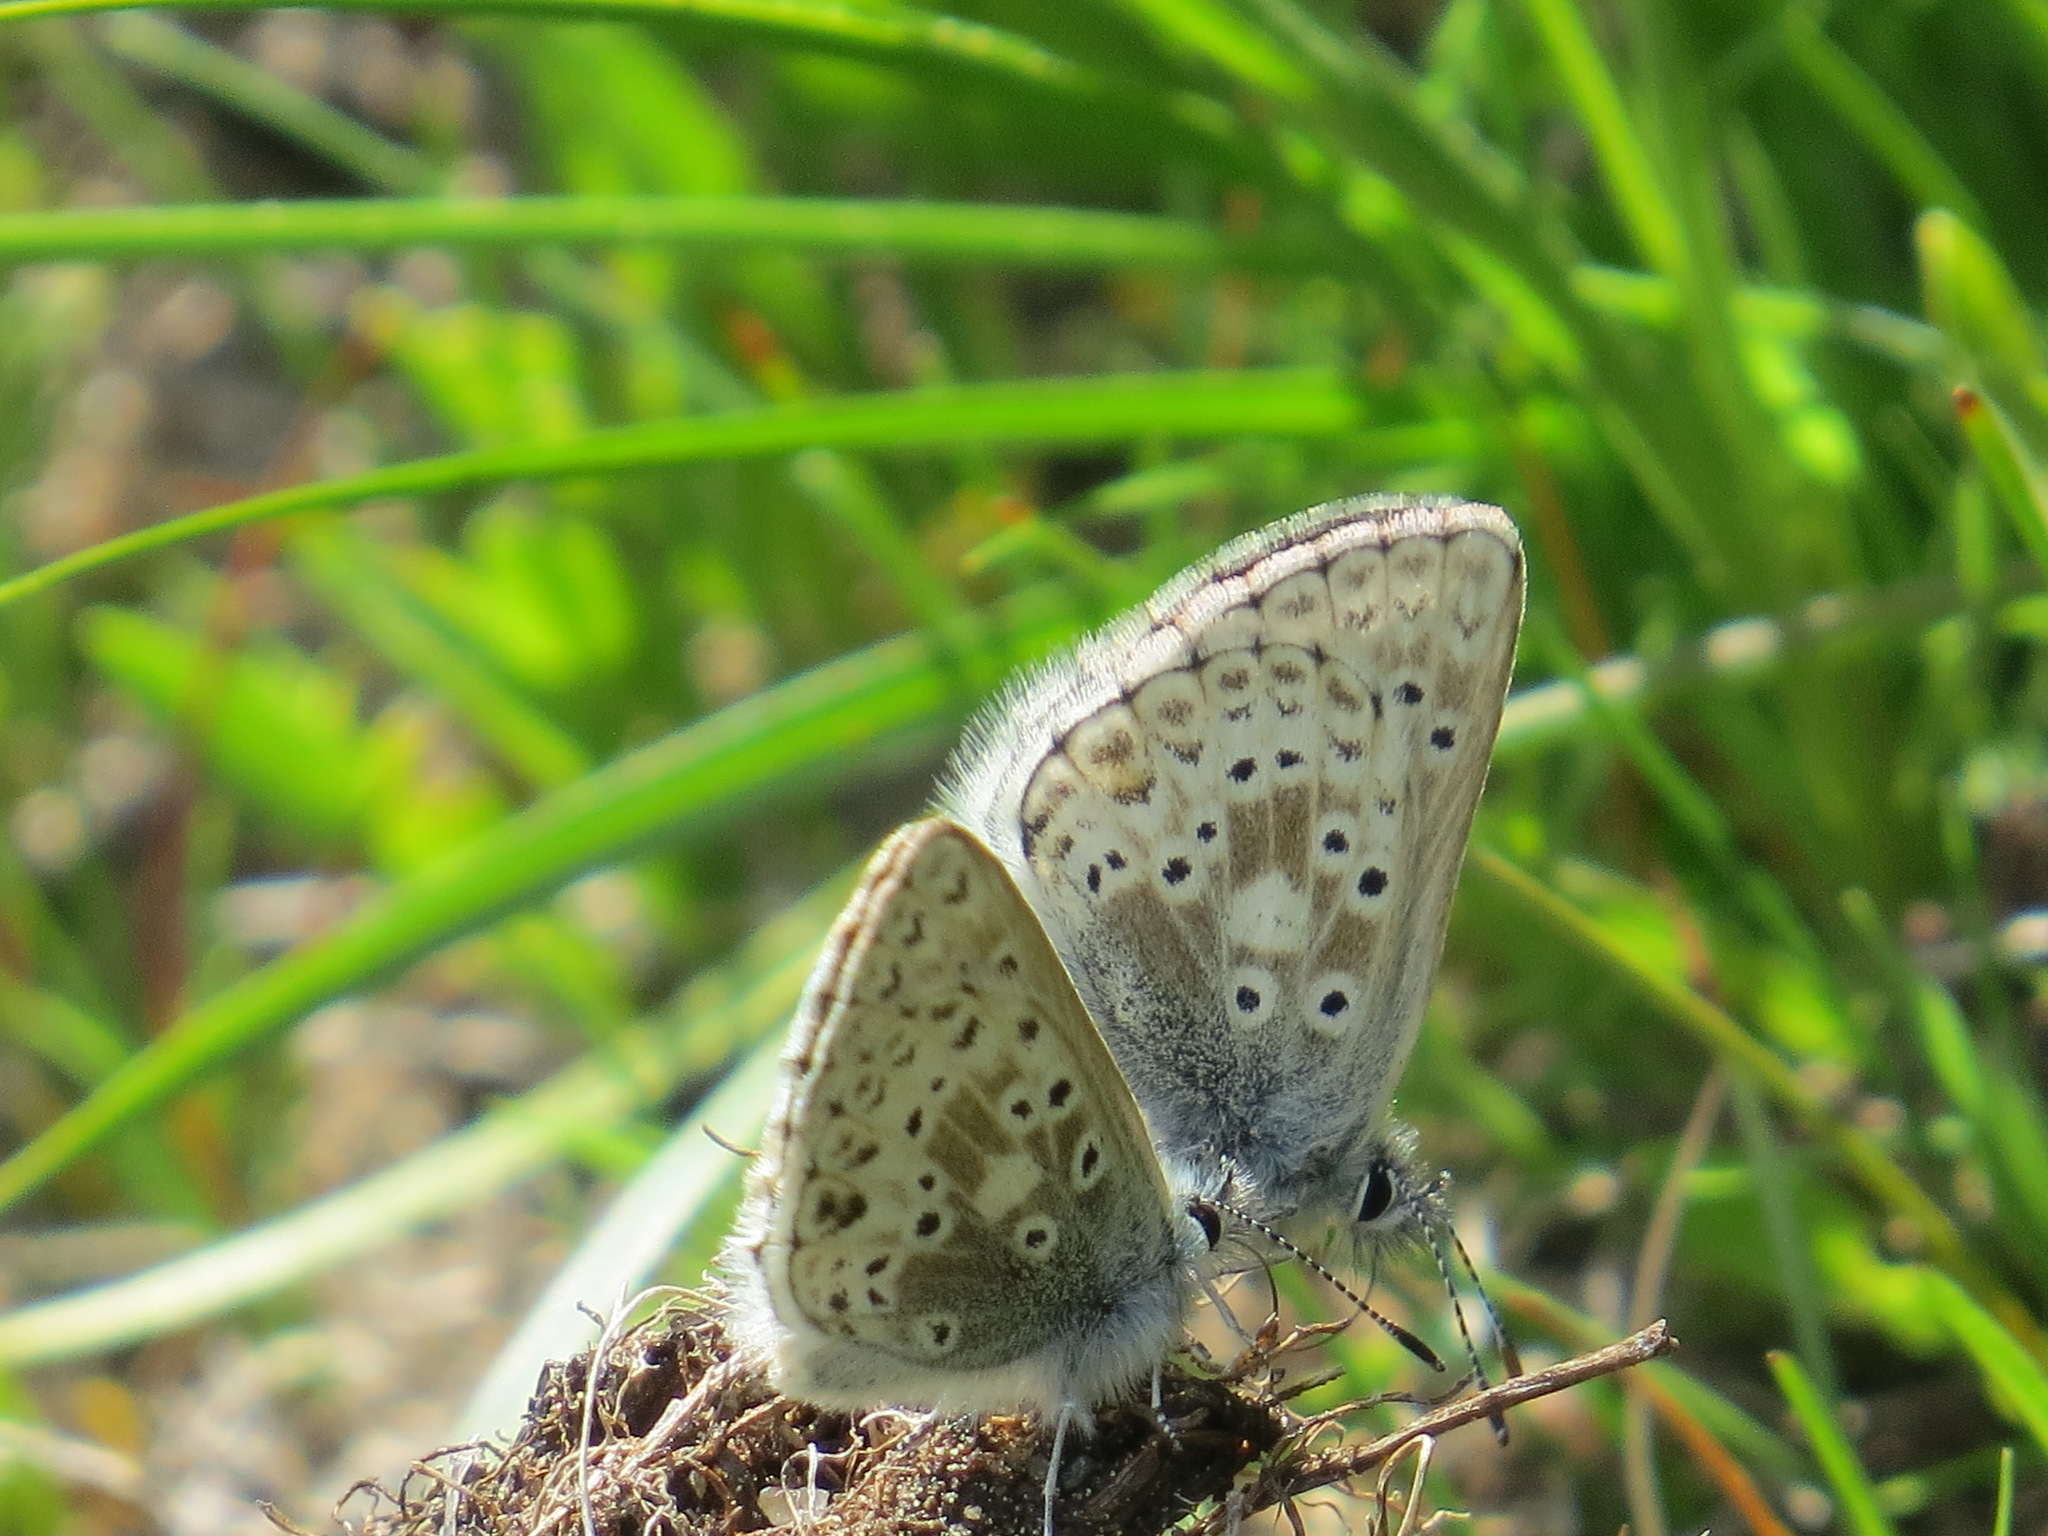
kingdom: Animalia
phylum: Arthropoda
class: Insecta
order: Lepidoptera
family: Lycaenidae
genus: Agriades
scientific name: Agriades podarce
